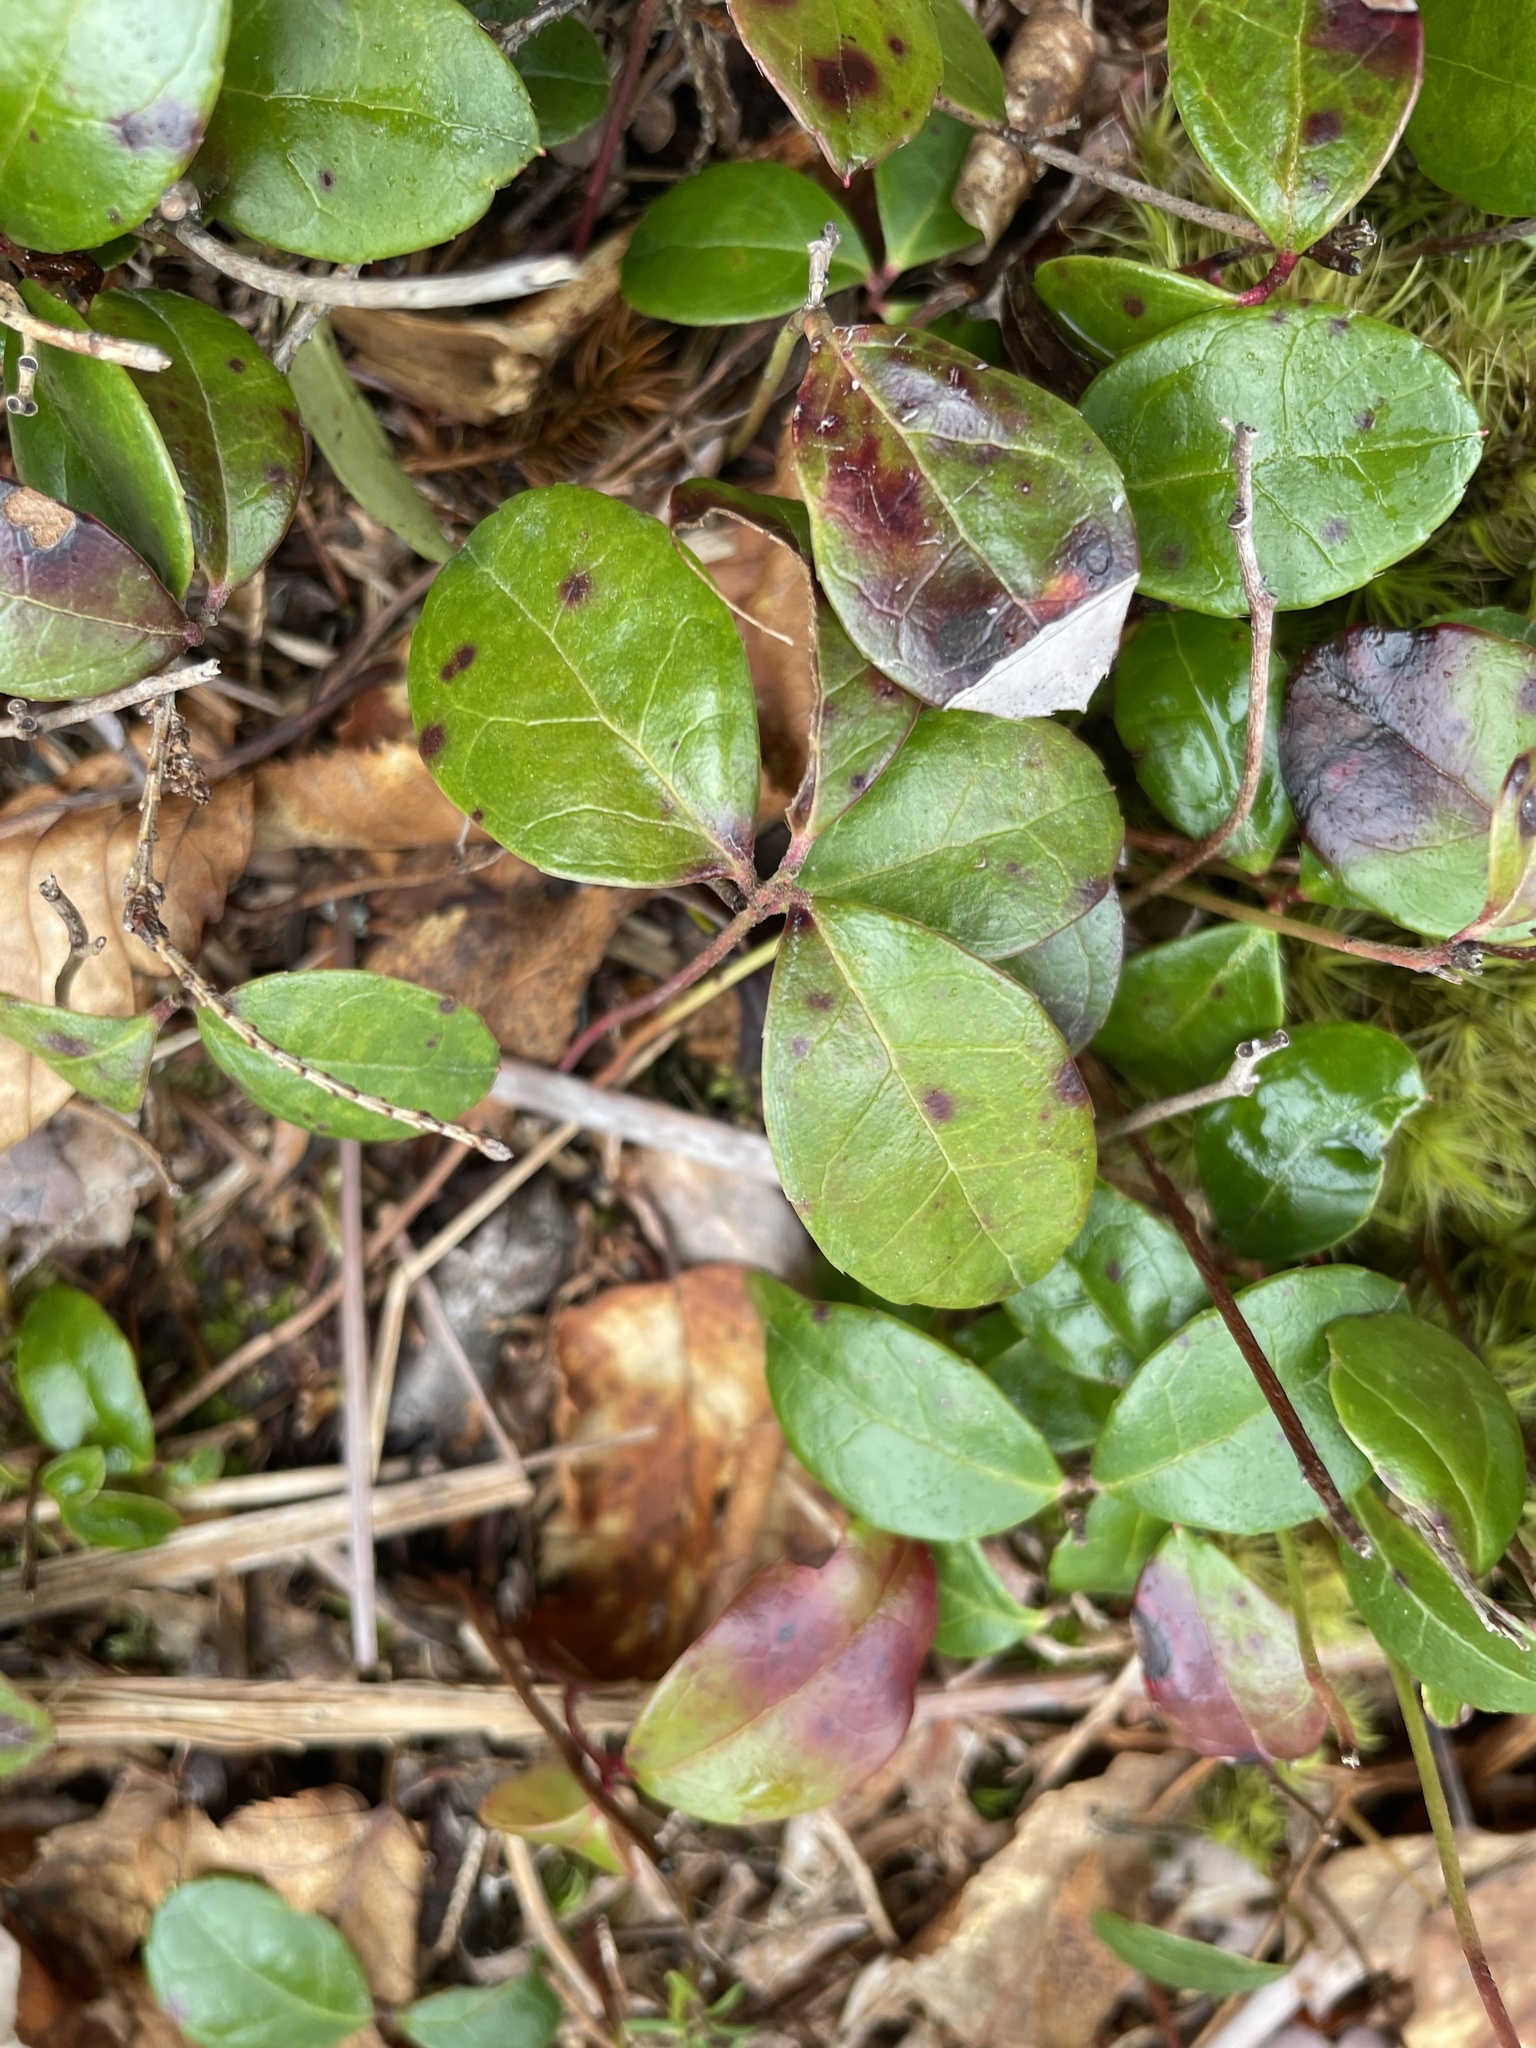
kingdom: Plantae
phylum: Tracheophyta
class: Magnoliopsida
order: Ericales
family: Ericaceae
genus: Gaultheria
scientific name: Gaultheria procumbens
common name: Checkerberry
